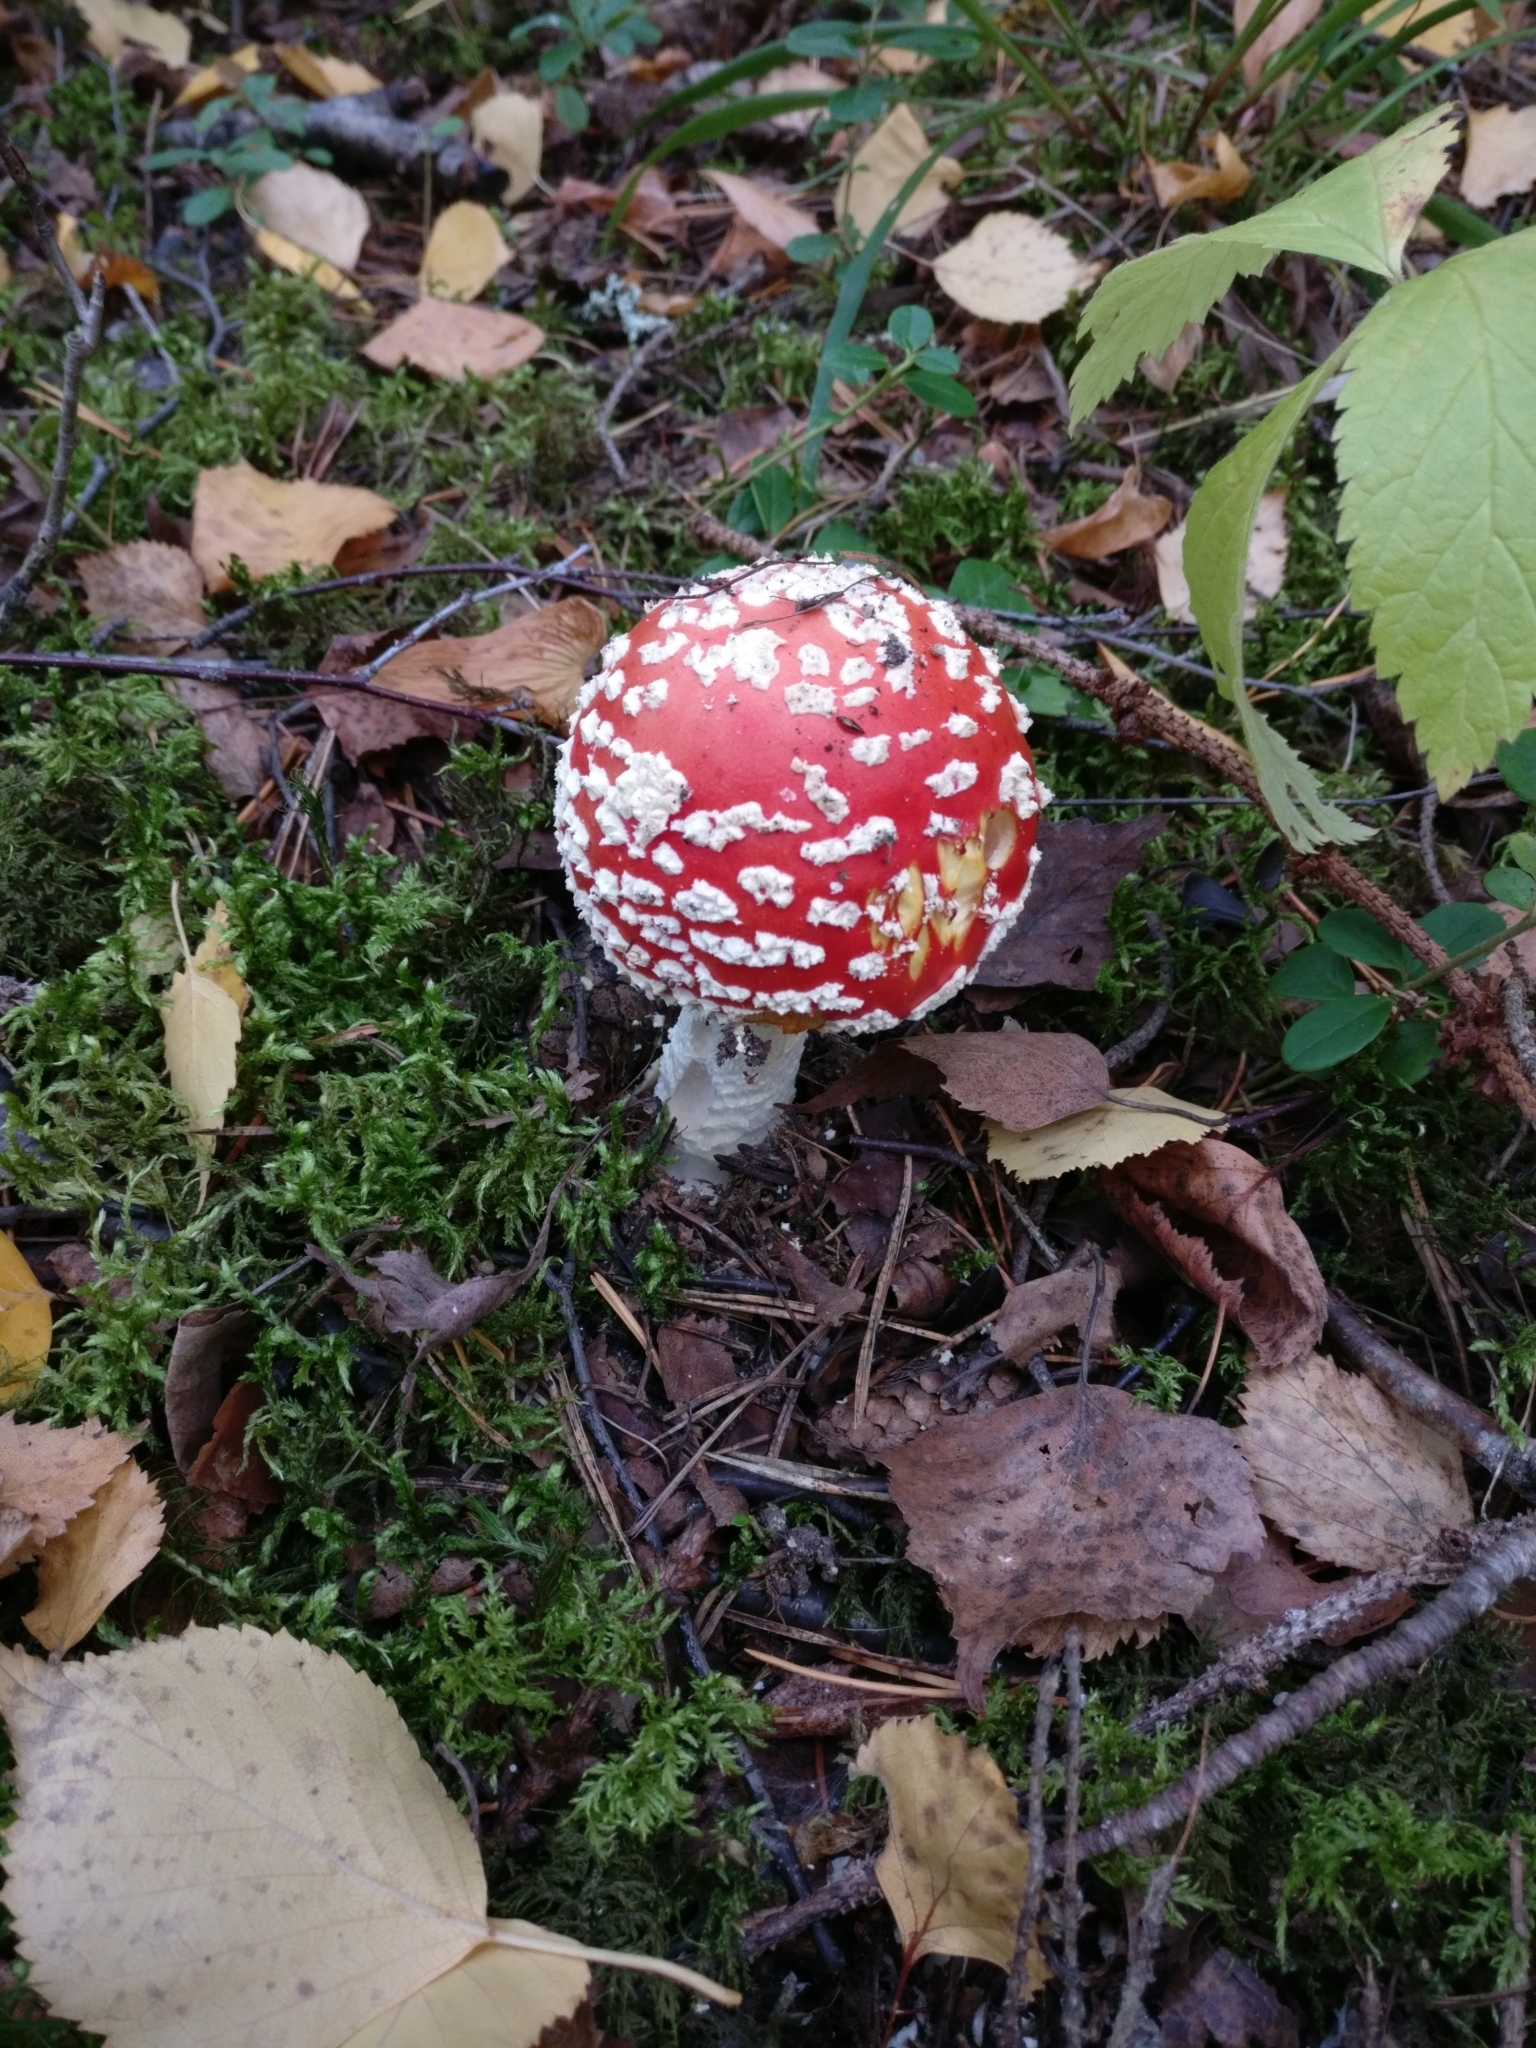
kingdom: Fungi
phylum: Basidiomycota
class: Agaricomycetes
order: Agaricales
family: Amanitaceae
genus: Amanita
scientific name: Amanita muscaria
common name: Fly agaric
